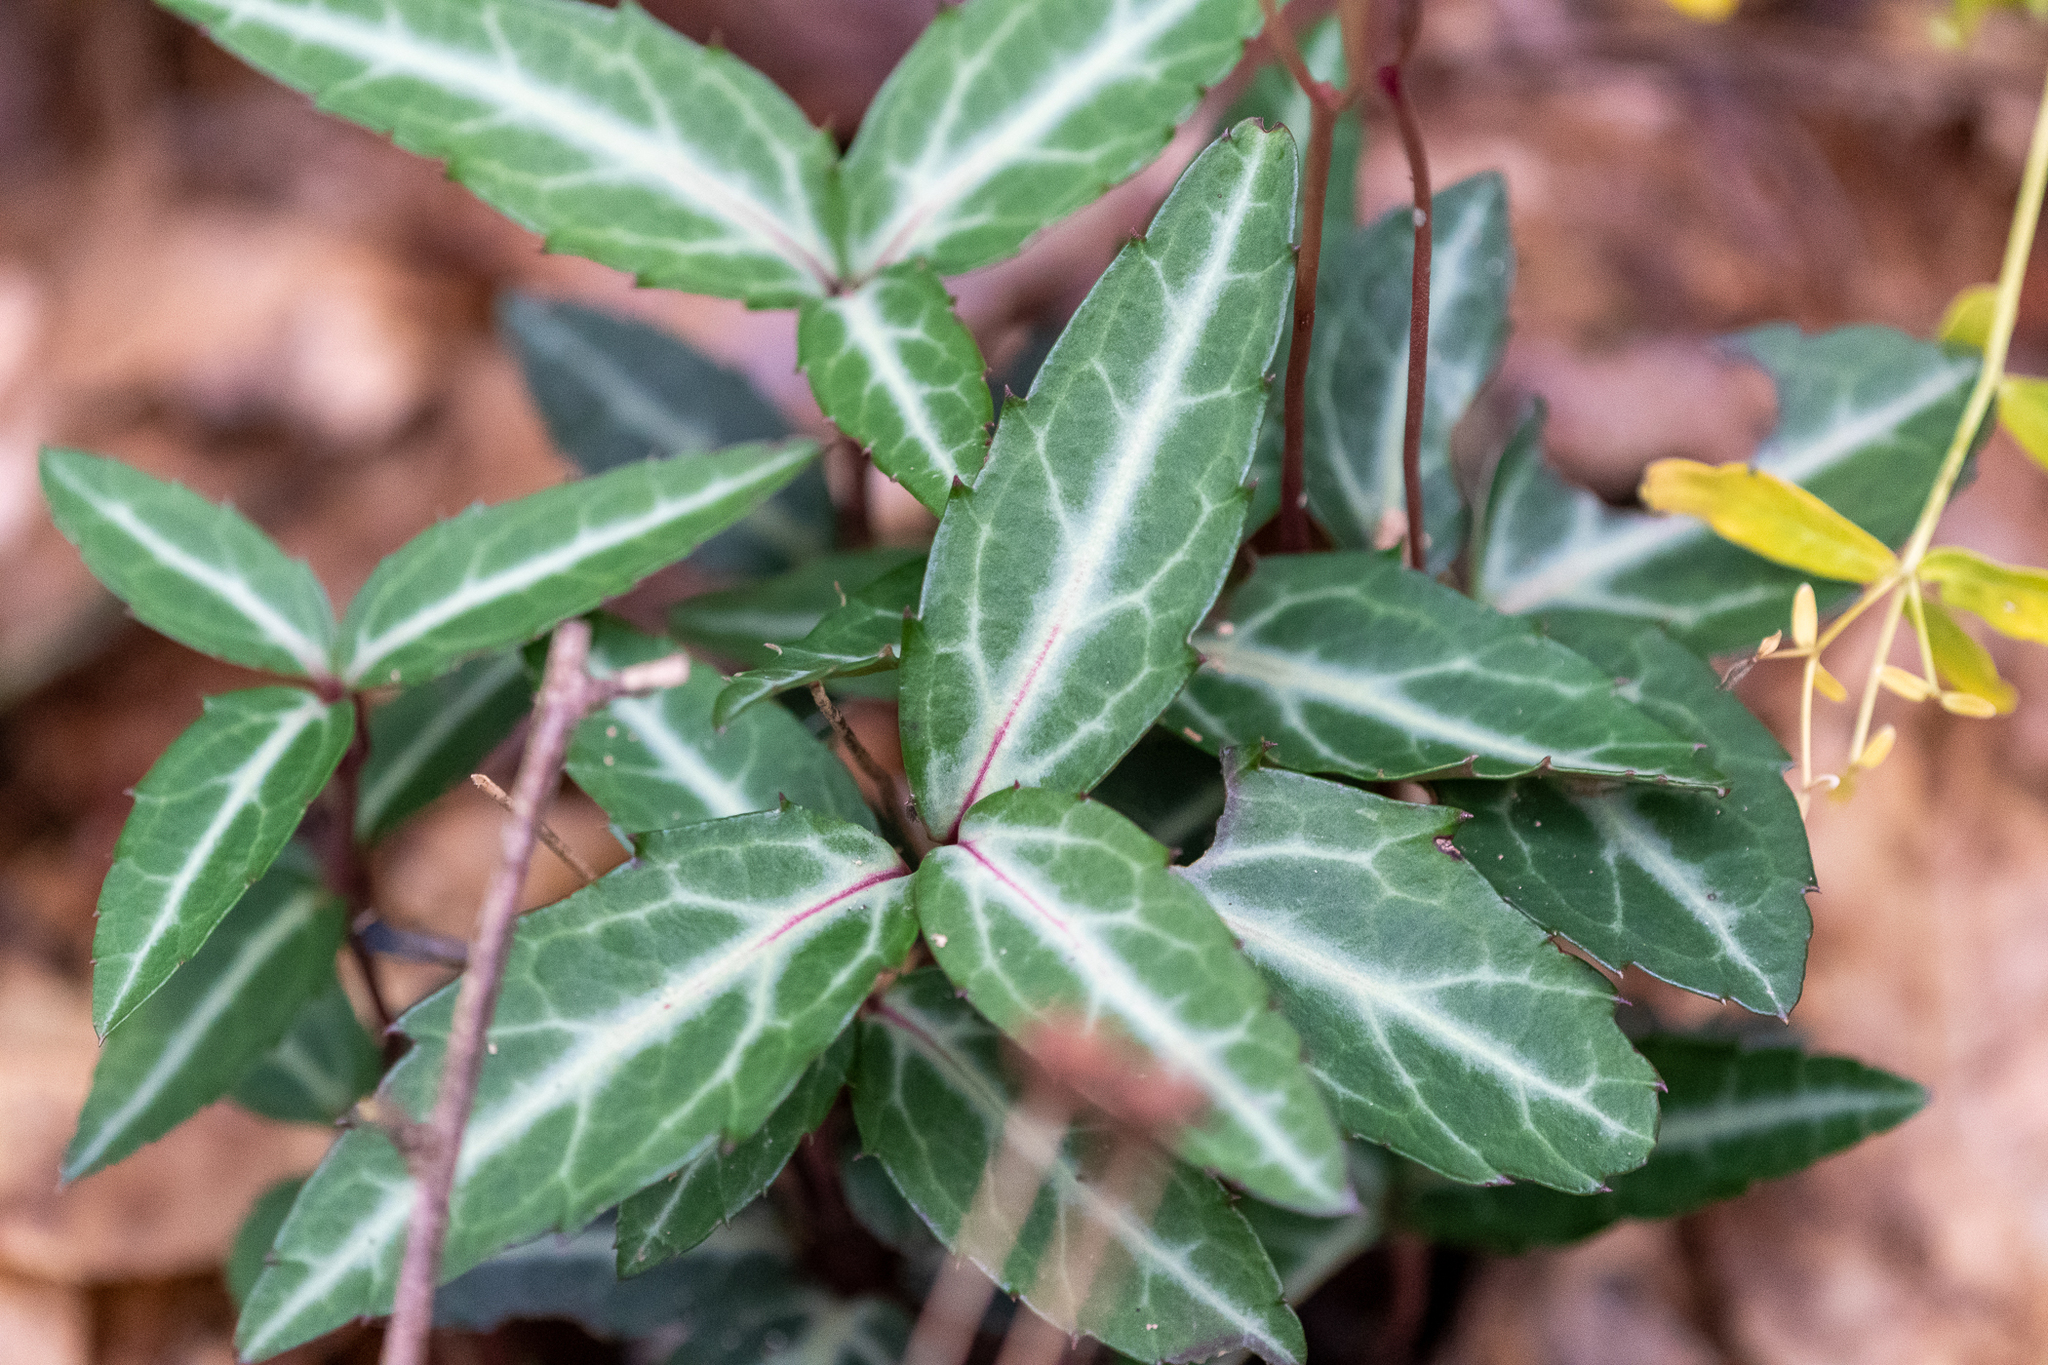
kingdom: Plantae
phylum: Tracheophyta
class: Magnoliopsida
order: Ericales
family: Ericaceae
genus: Chimaphila
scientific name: Chimaphila maculata
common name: Spotted pipsissewa
